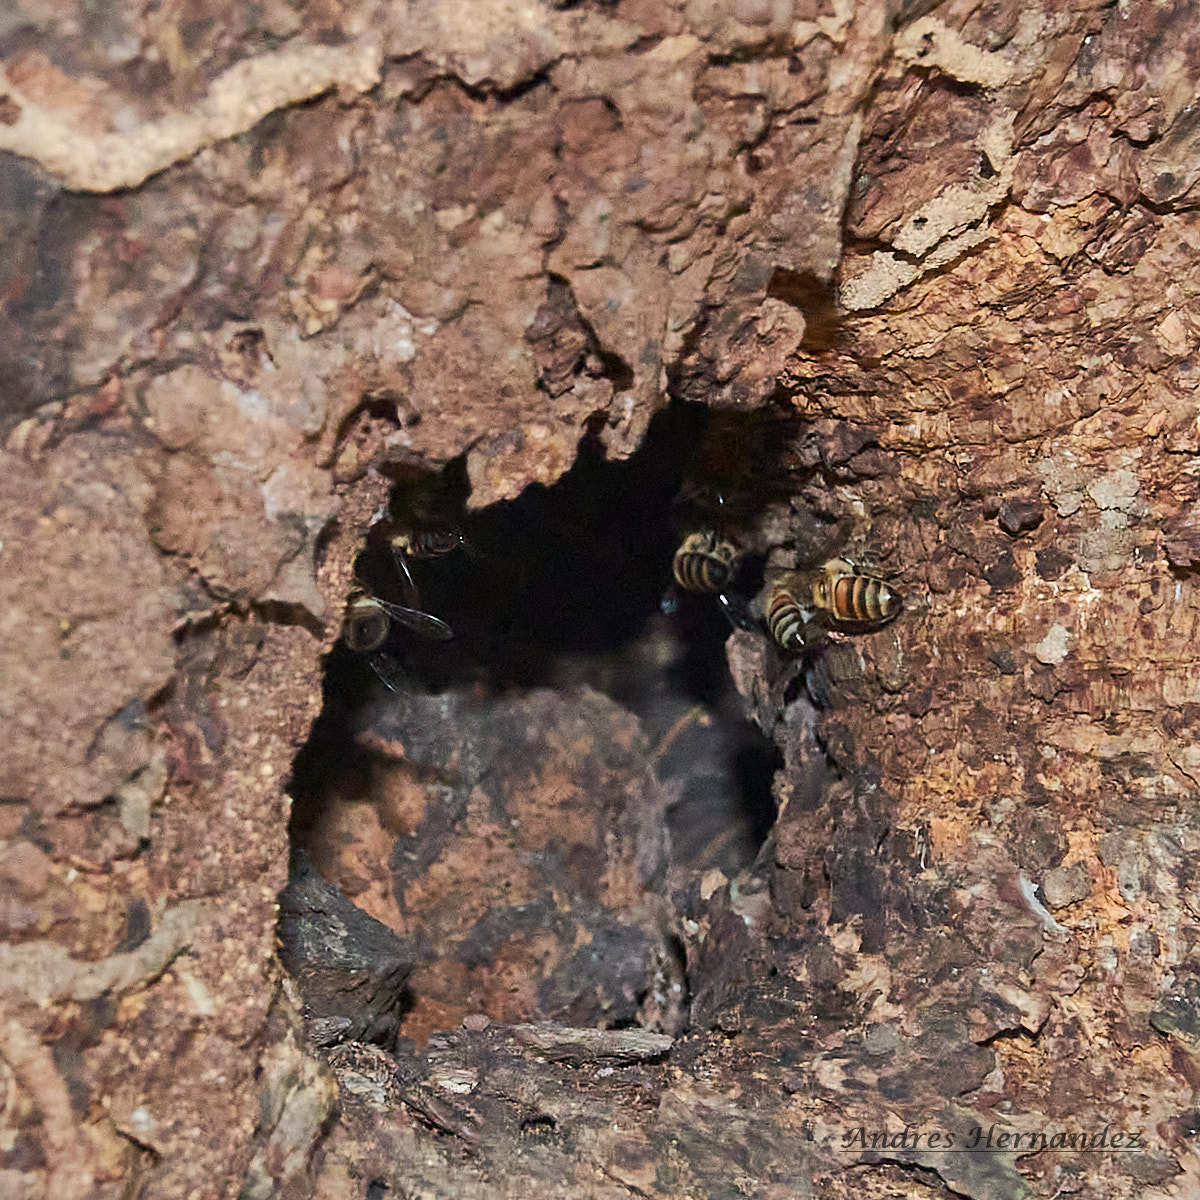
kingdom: Animalia
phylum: Arthropoda
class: Insecta
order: Hymenoptera
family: Apidae
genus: Apis
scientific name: Apis mellifera
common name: Honey bee
